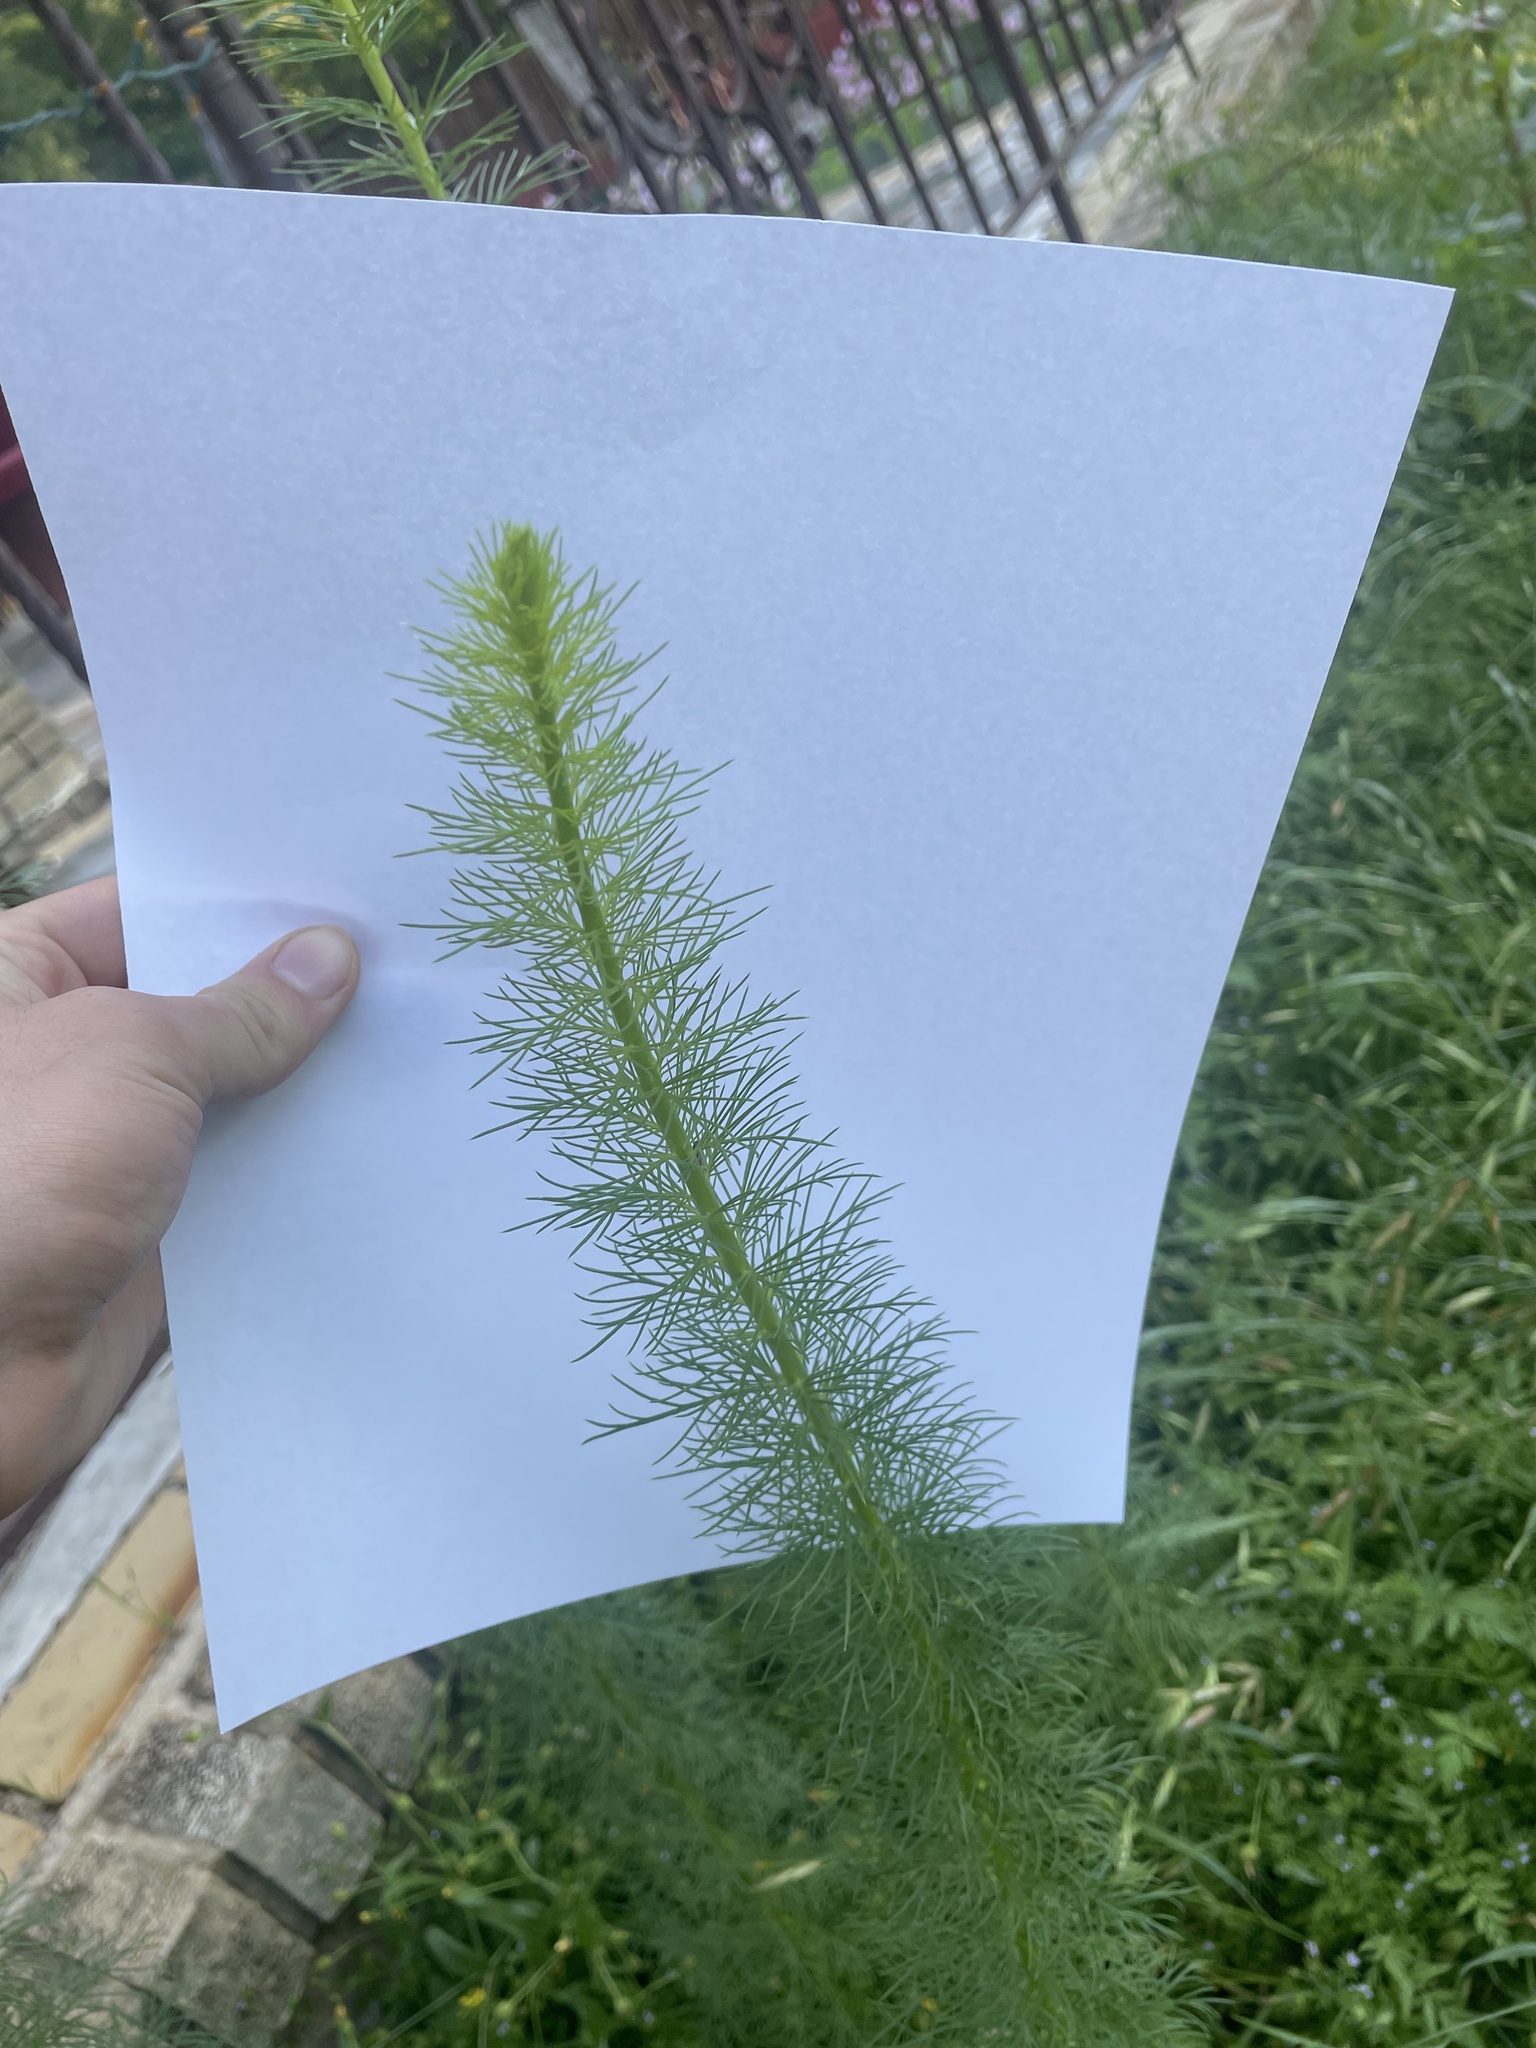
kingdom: Plantae
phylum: Tracheophyta
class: Magnoliopsida
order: Ericales
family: Polemoniaceae
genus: Ipomopsis
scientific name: Ipomopsis rubra
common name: Skyrocket
